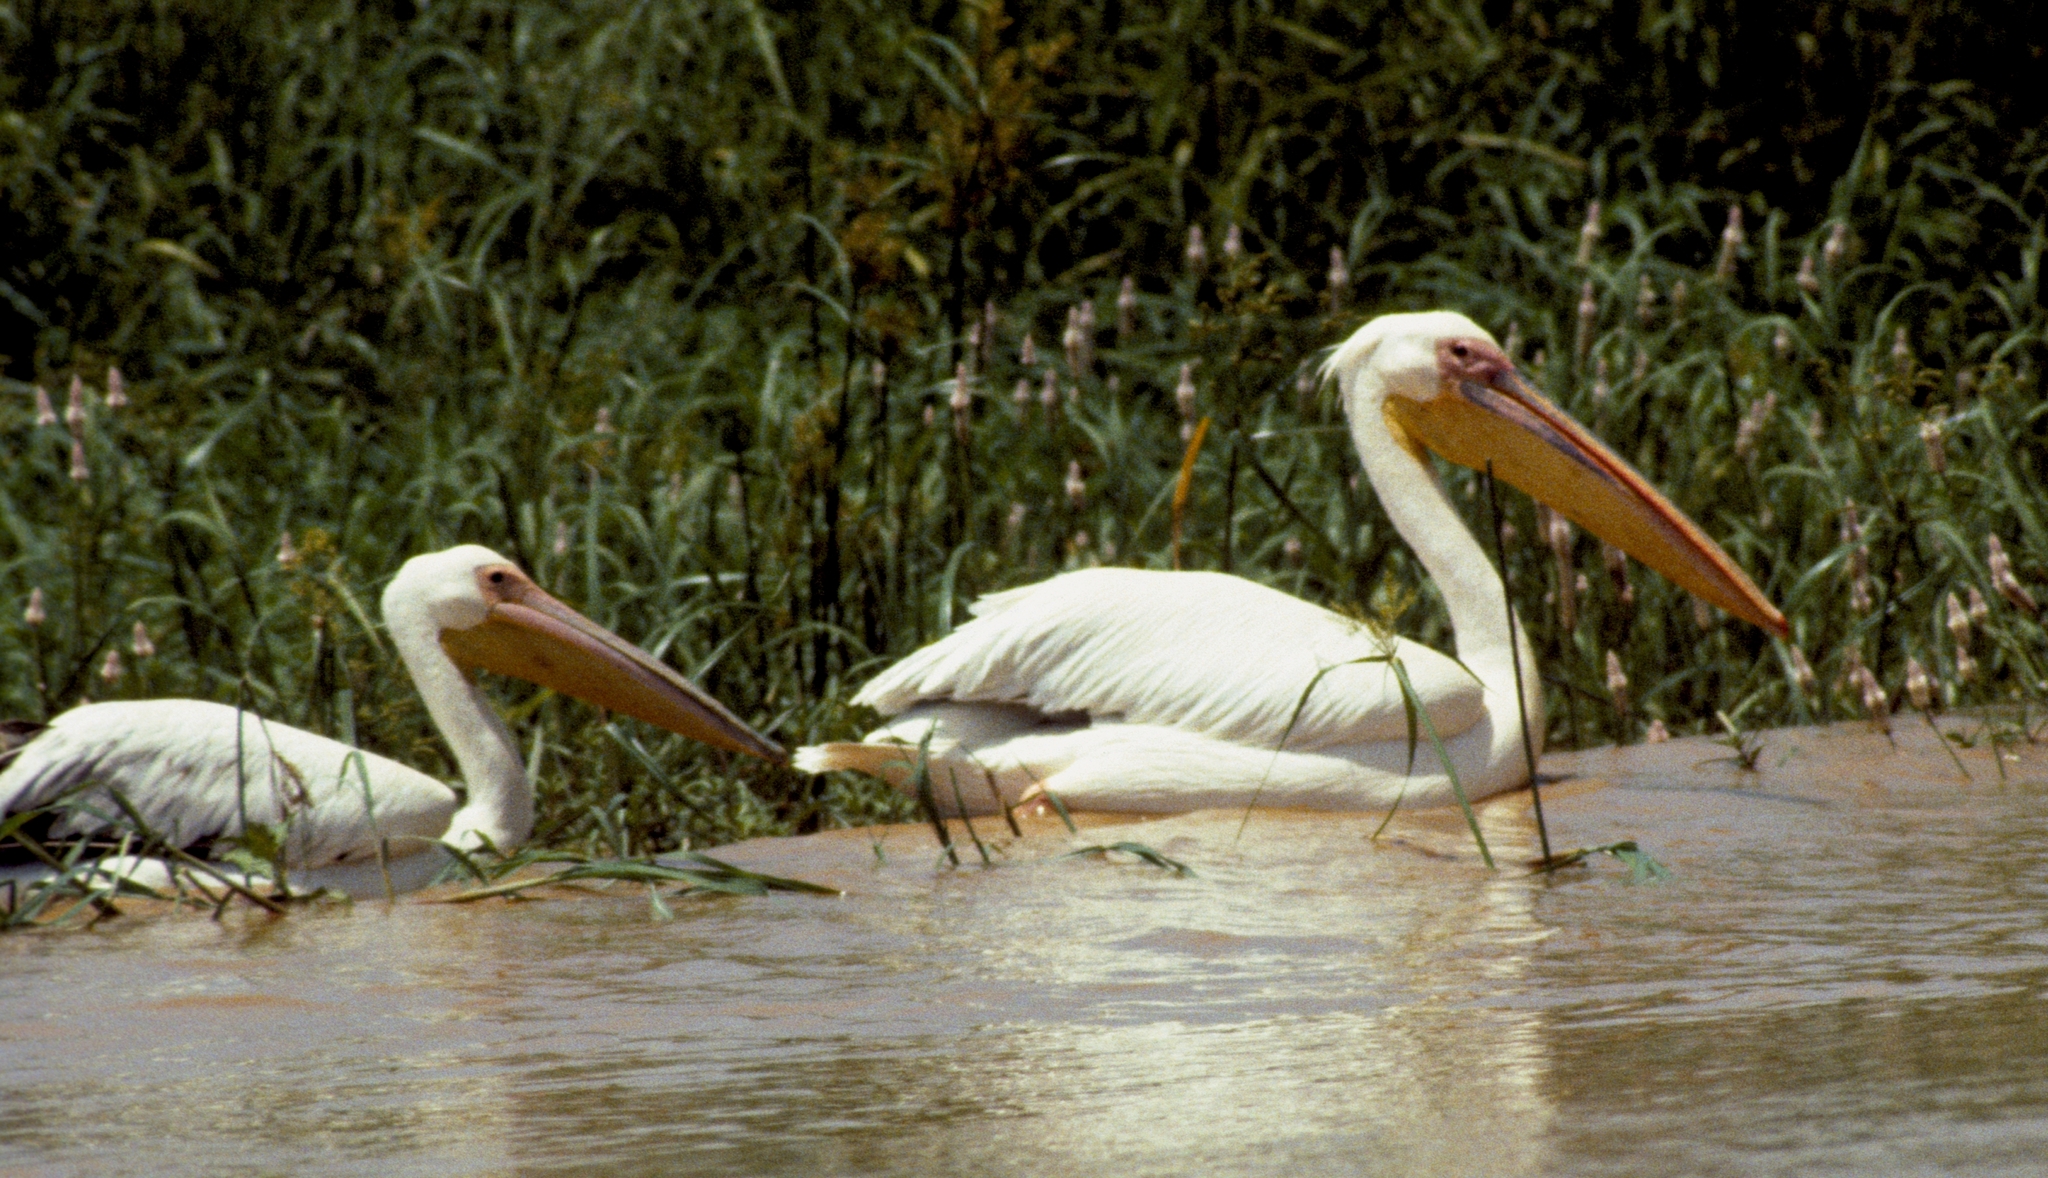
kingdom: Animalia
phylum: Chordata
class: Aves
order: Pelecaniformes
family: Pelecanidae
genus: Pelecanus
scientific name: Pelecanus onocrotalus
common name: Great white pelican
